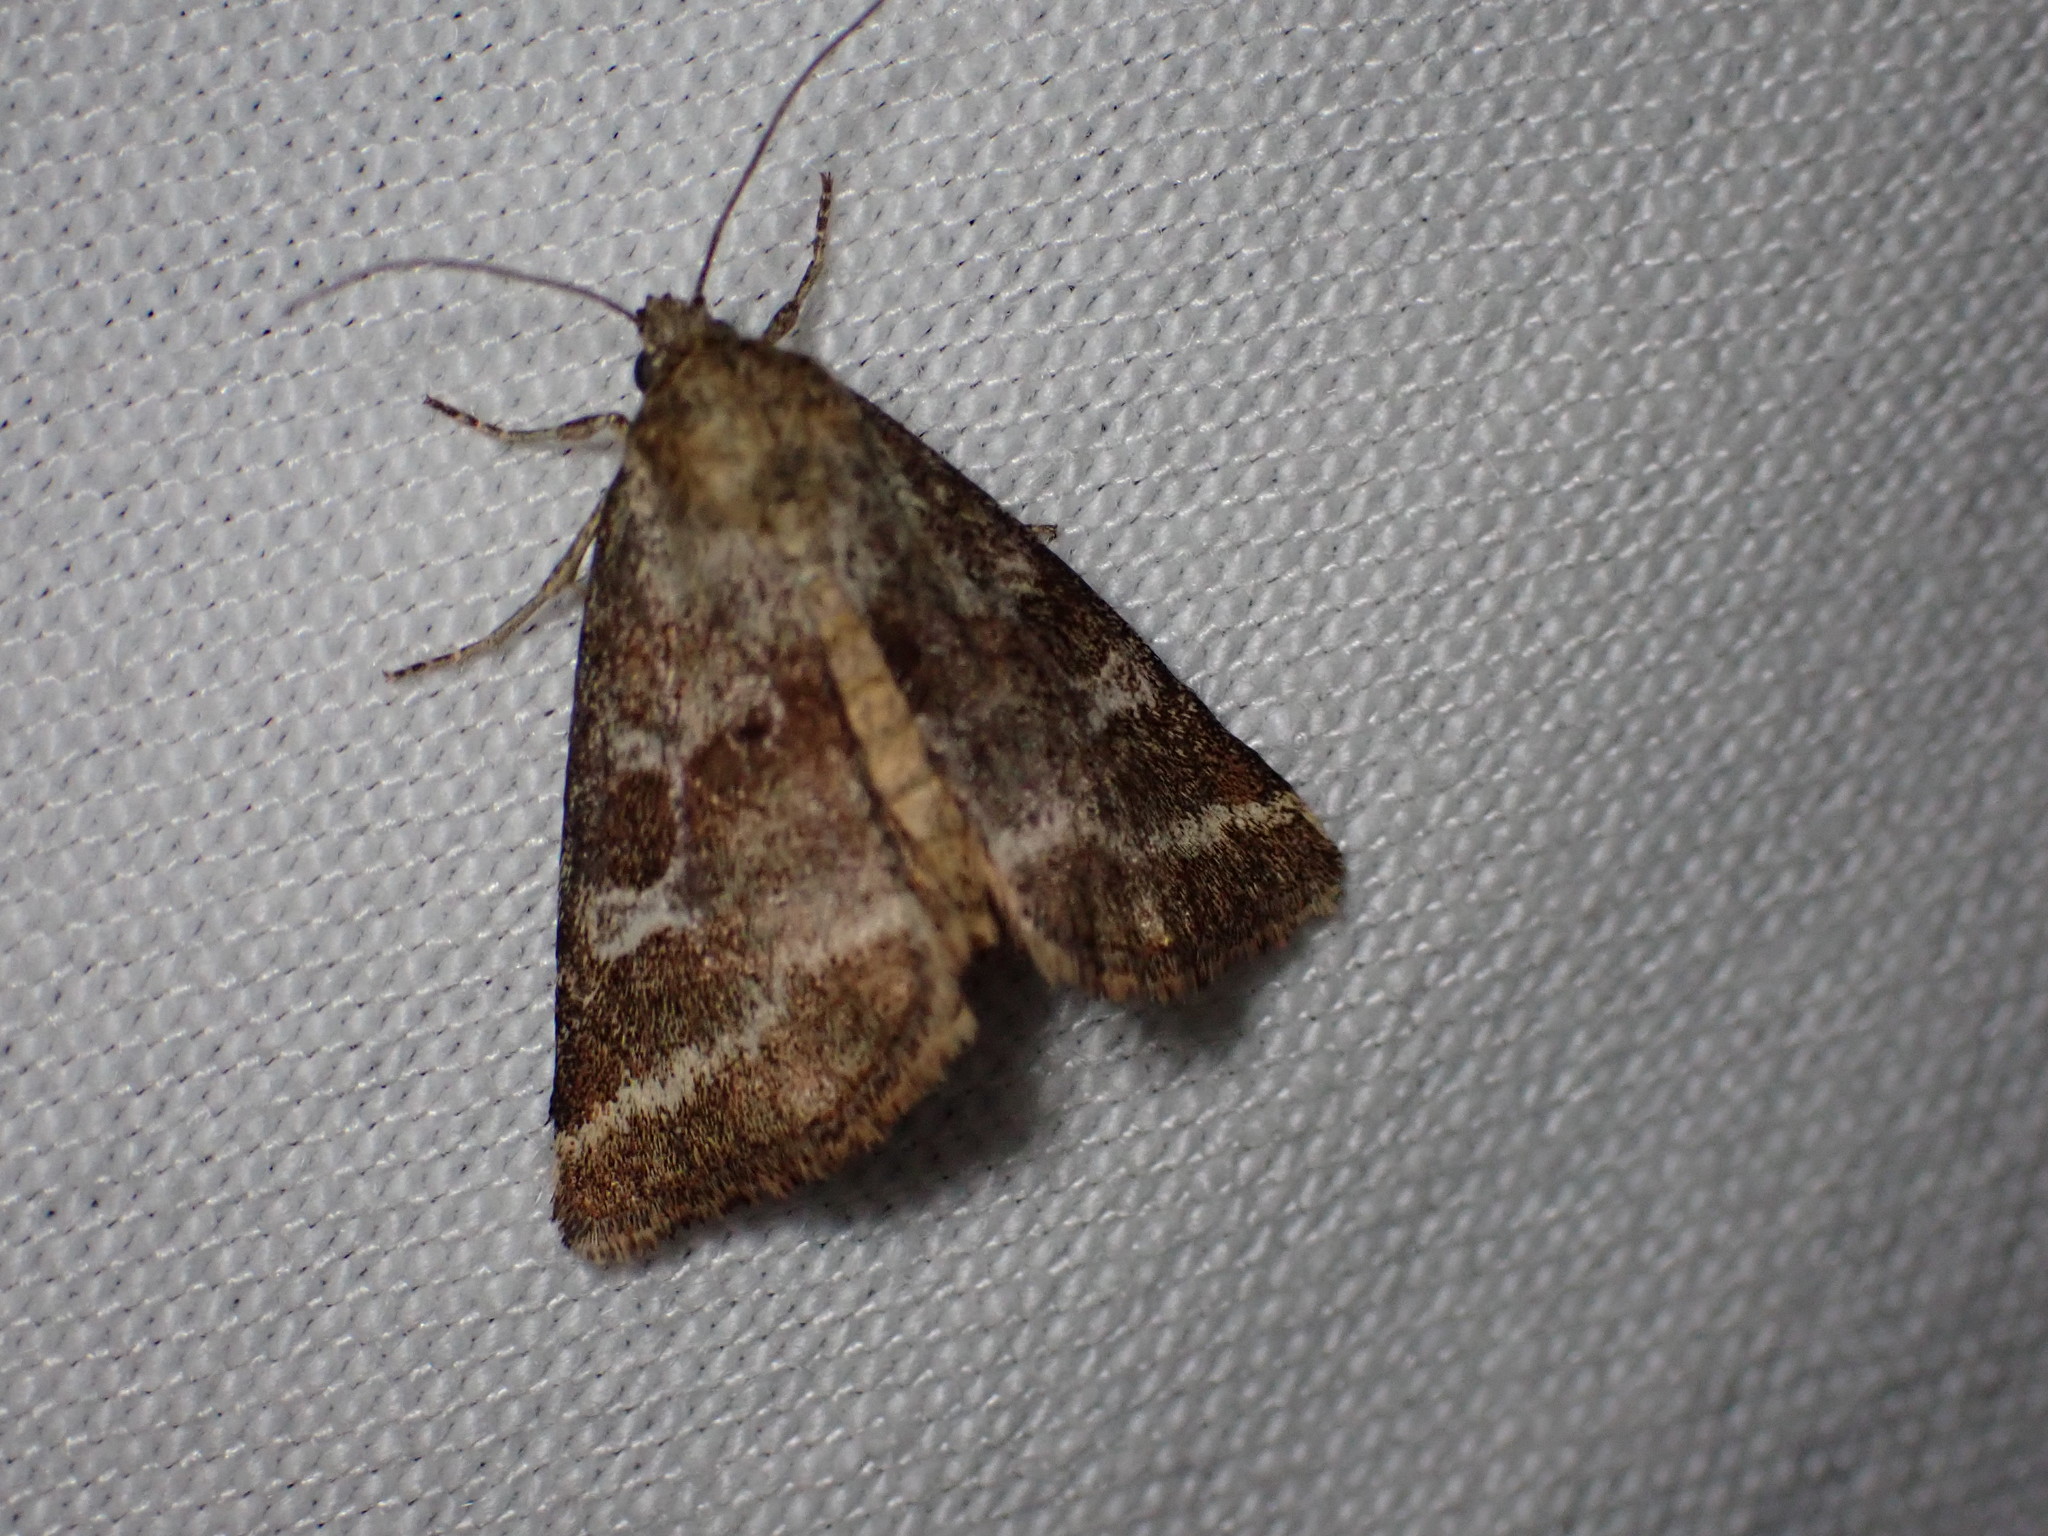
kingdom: Animalia
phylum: Arthropoda
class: Insecta
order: Lepidoptera
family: Noctuidae
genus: Synthymia
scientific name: Synthymia fixa
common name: Goldwing
